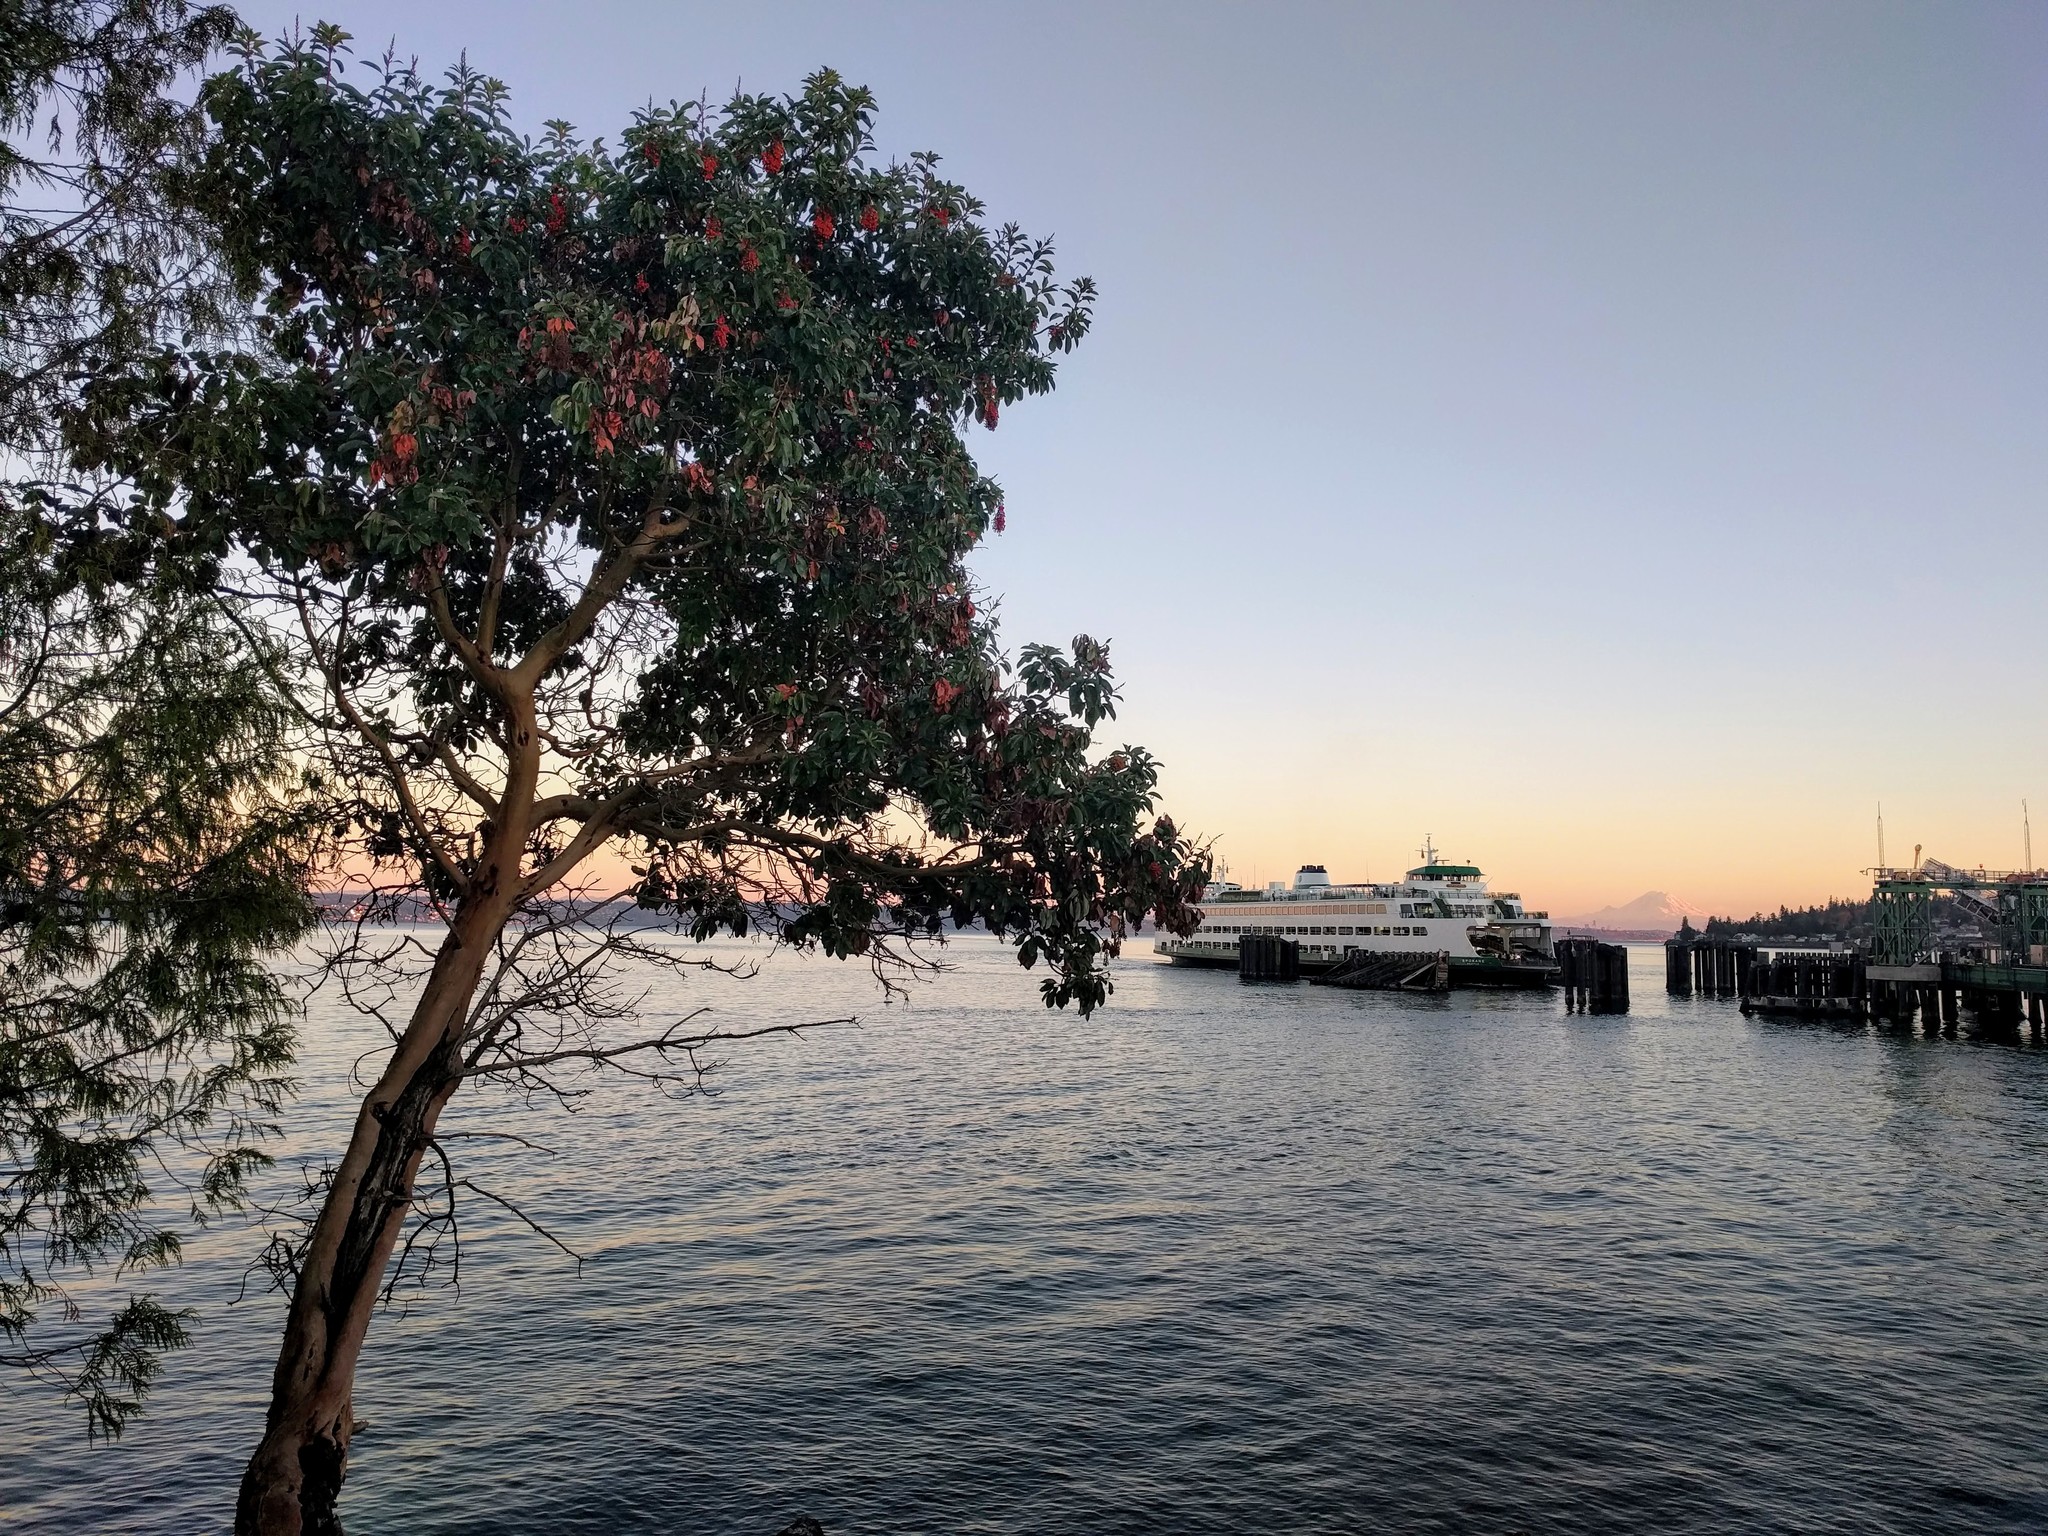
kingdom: Plantae
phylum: Tracheophyta
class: Magnoliopsida
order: Ericales
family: Ericaceae
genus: Arbutus
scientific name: Arbutus menziesii
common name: Pacific madrone
